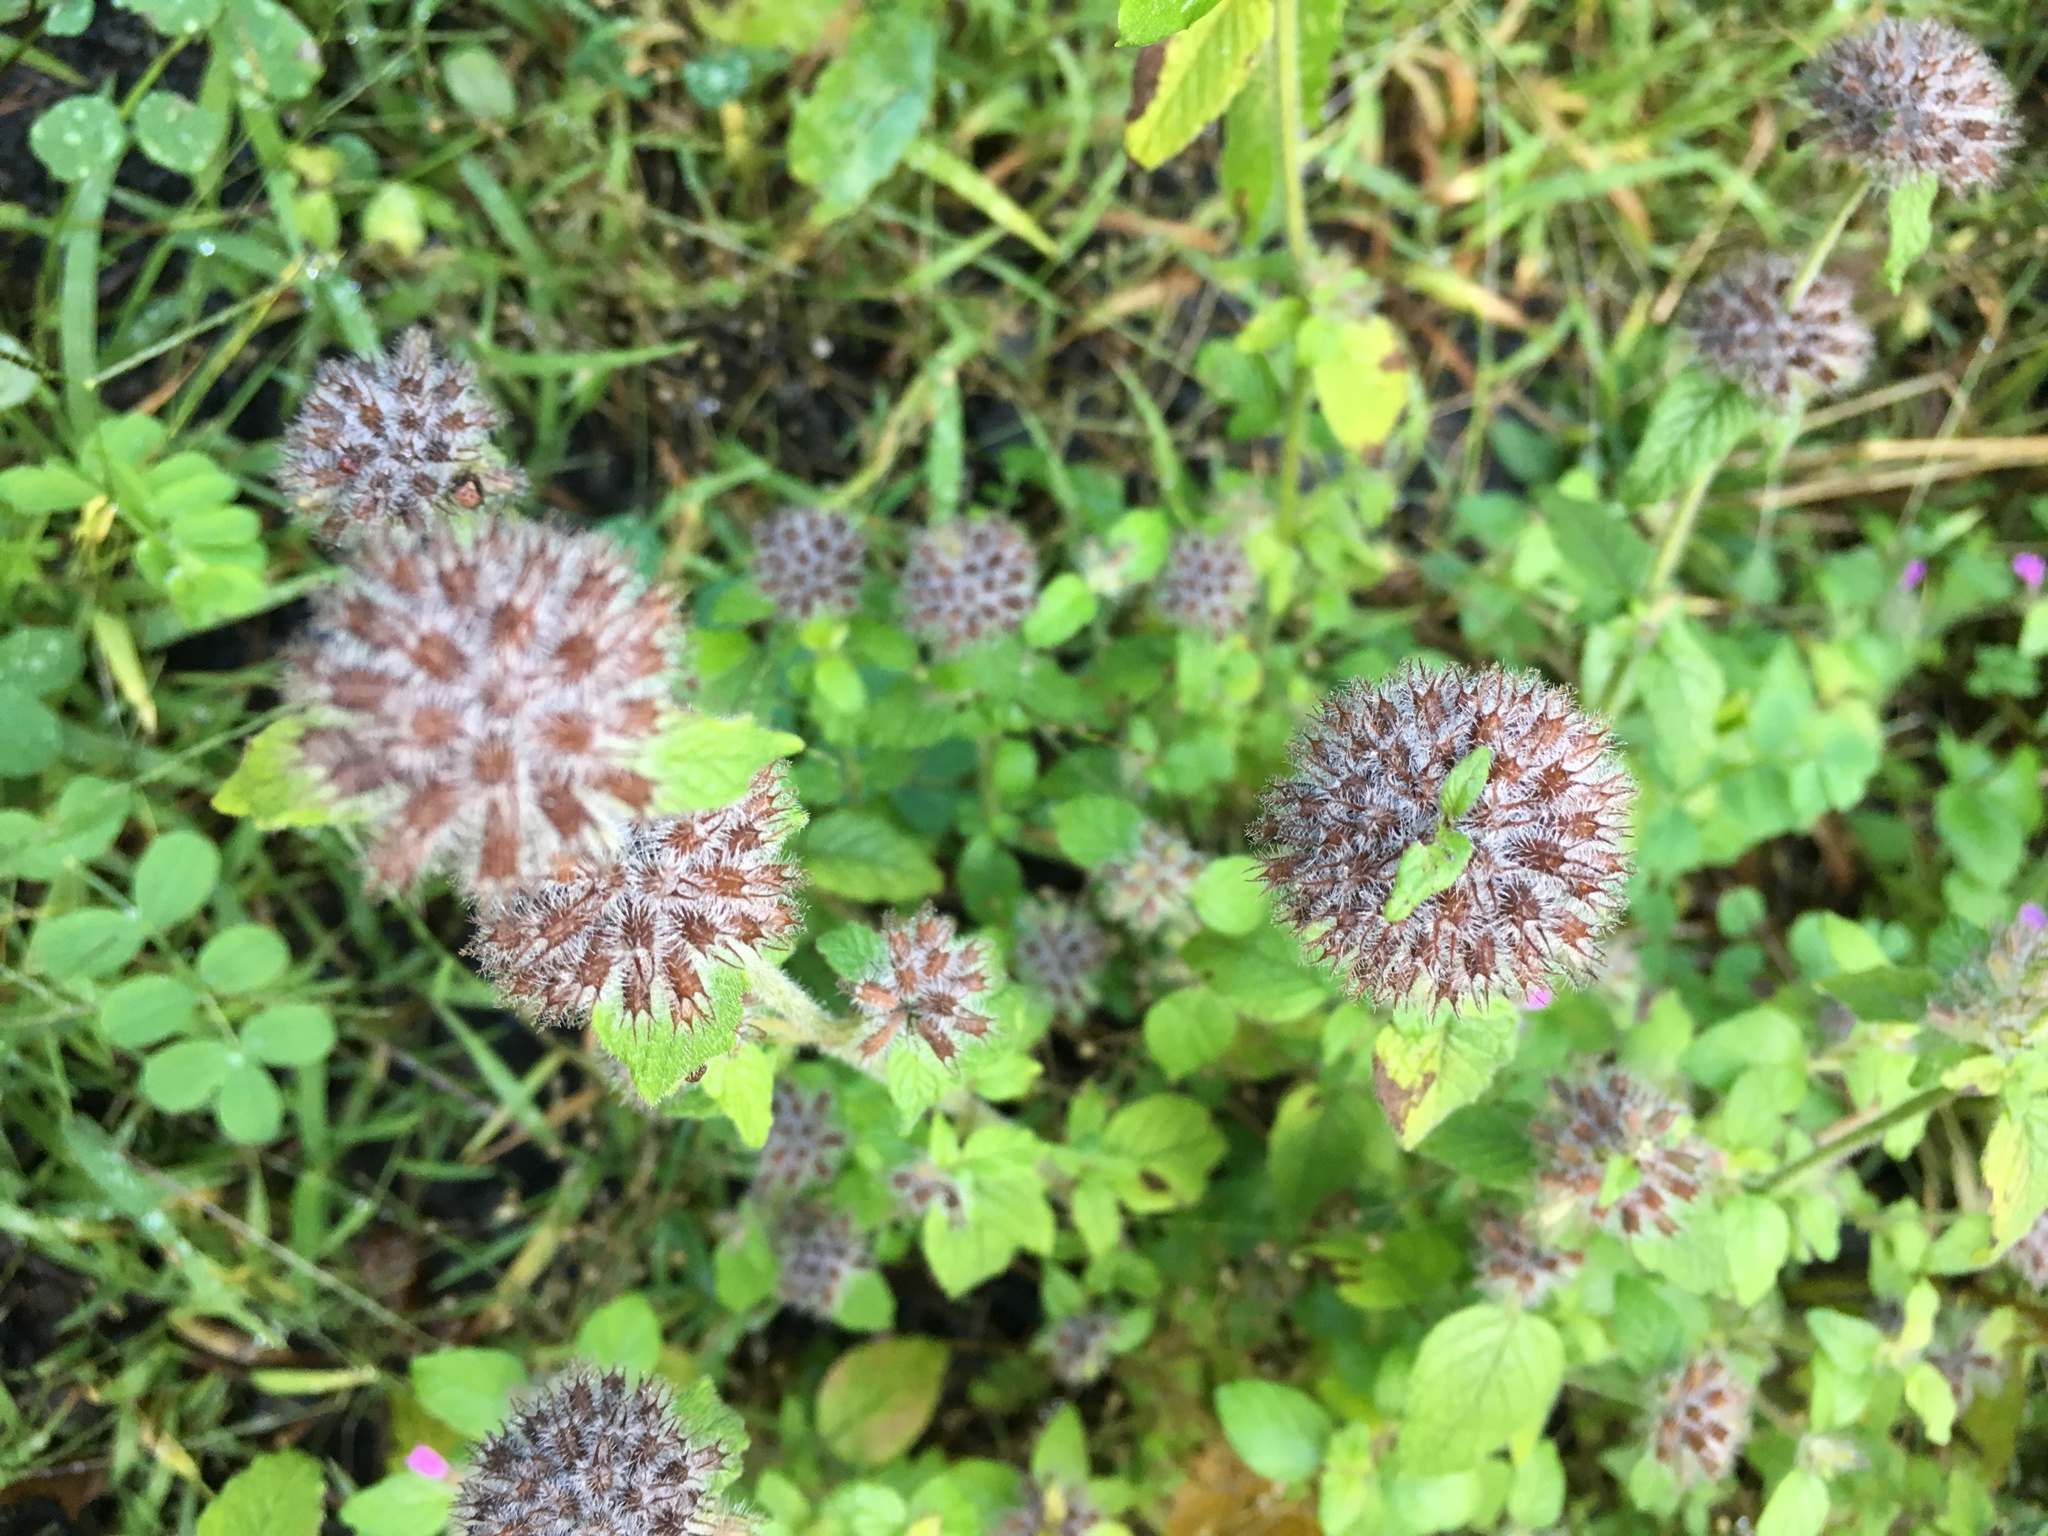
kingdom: Plantae
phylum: Tracheophyta
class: Magnoliopsida
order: Lamiales
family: Lamiaceae
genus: Clinopodium
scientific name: Clinopodium vulgare
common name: Wild basil
